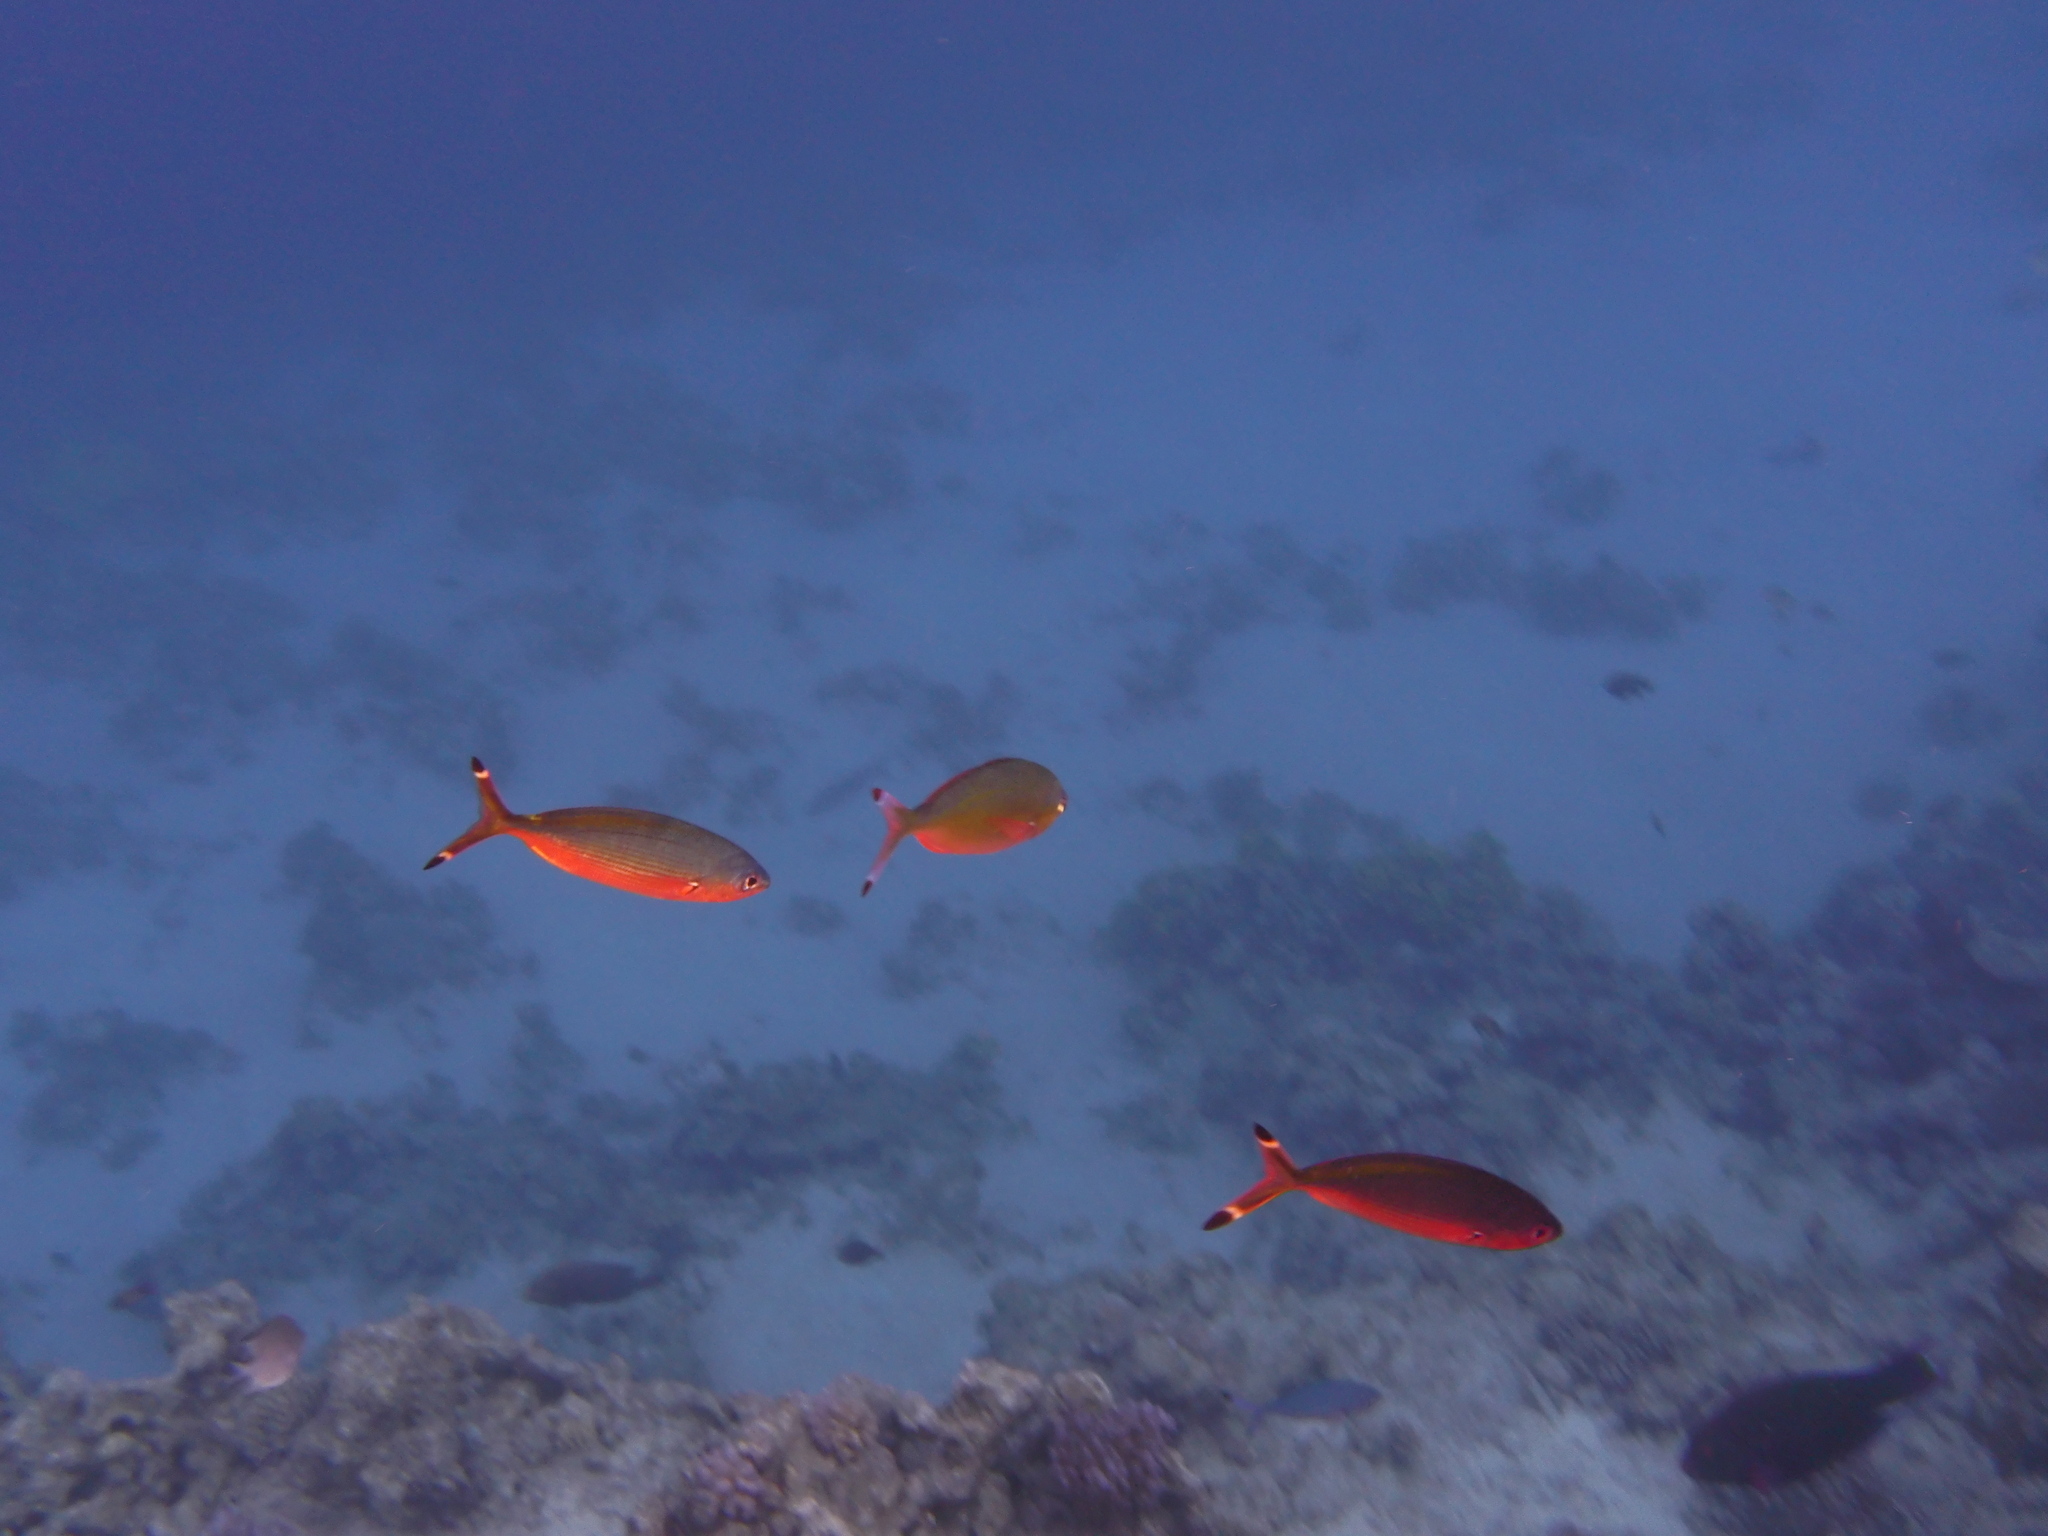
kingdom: Animalia
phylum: Chordata
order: Perciformes
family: Caesionidae
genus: Caesio
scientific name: Caesio suevica
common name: Suez fusilier
